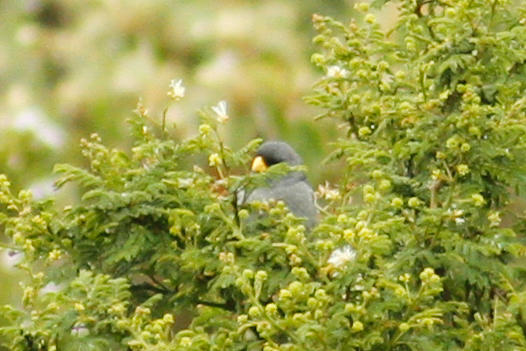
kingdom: Animalia
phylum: Chordata
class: Aves
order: Passeriformes
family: Thraupidae
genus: Catamenia
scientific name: Catamenia analis
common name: Band-tailed seedeater
